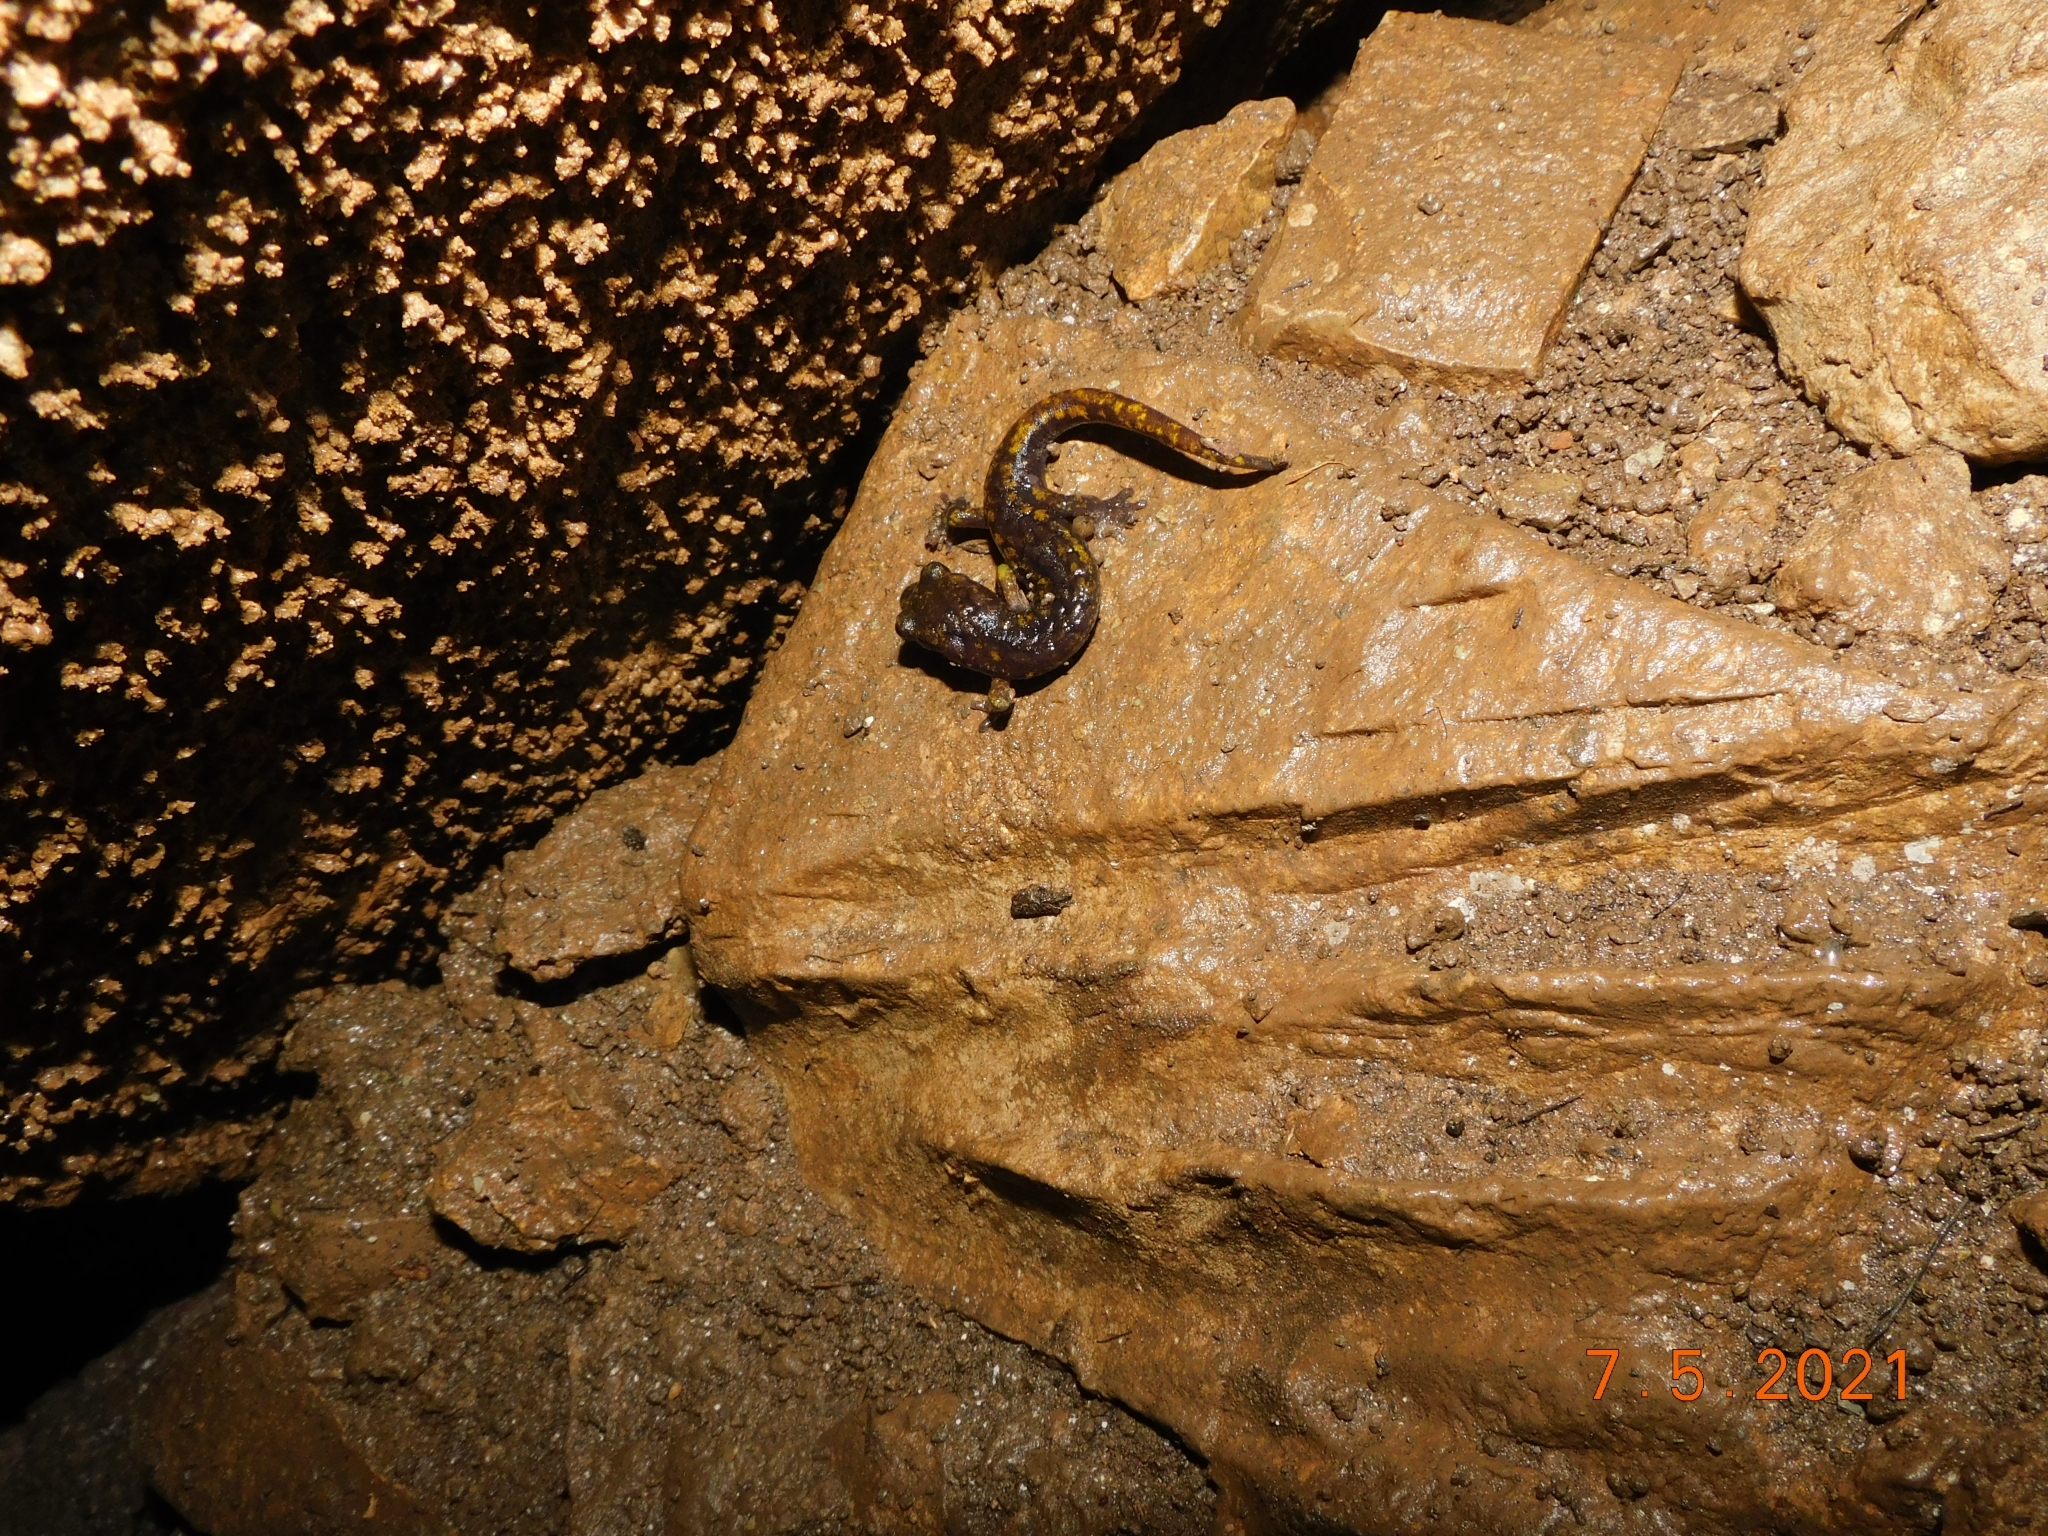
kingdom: Animalia
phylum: Chordata
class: Amphibia
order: Caudata
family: Plethodontidae
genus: Speleomantes
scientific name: Speleomantes strinatii
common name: French cave salamander
